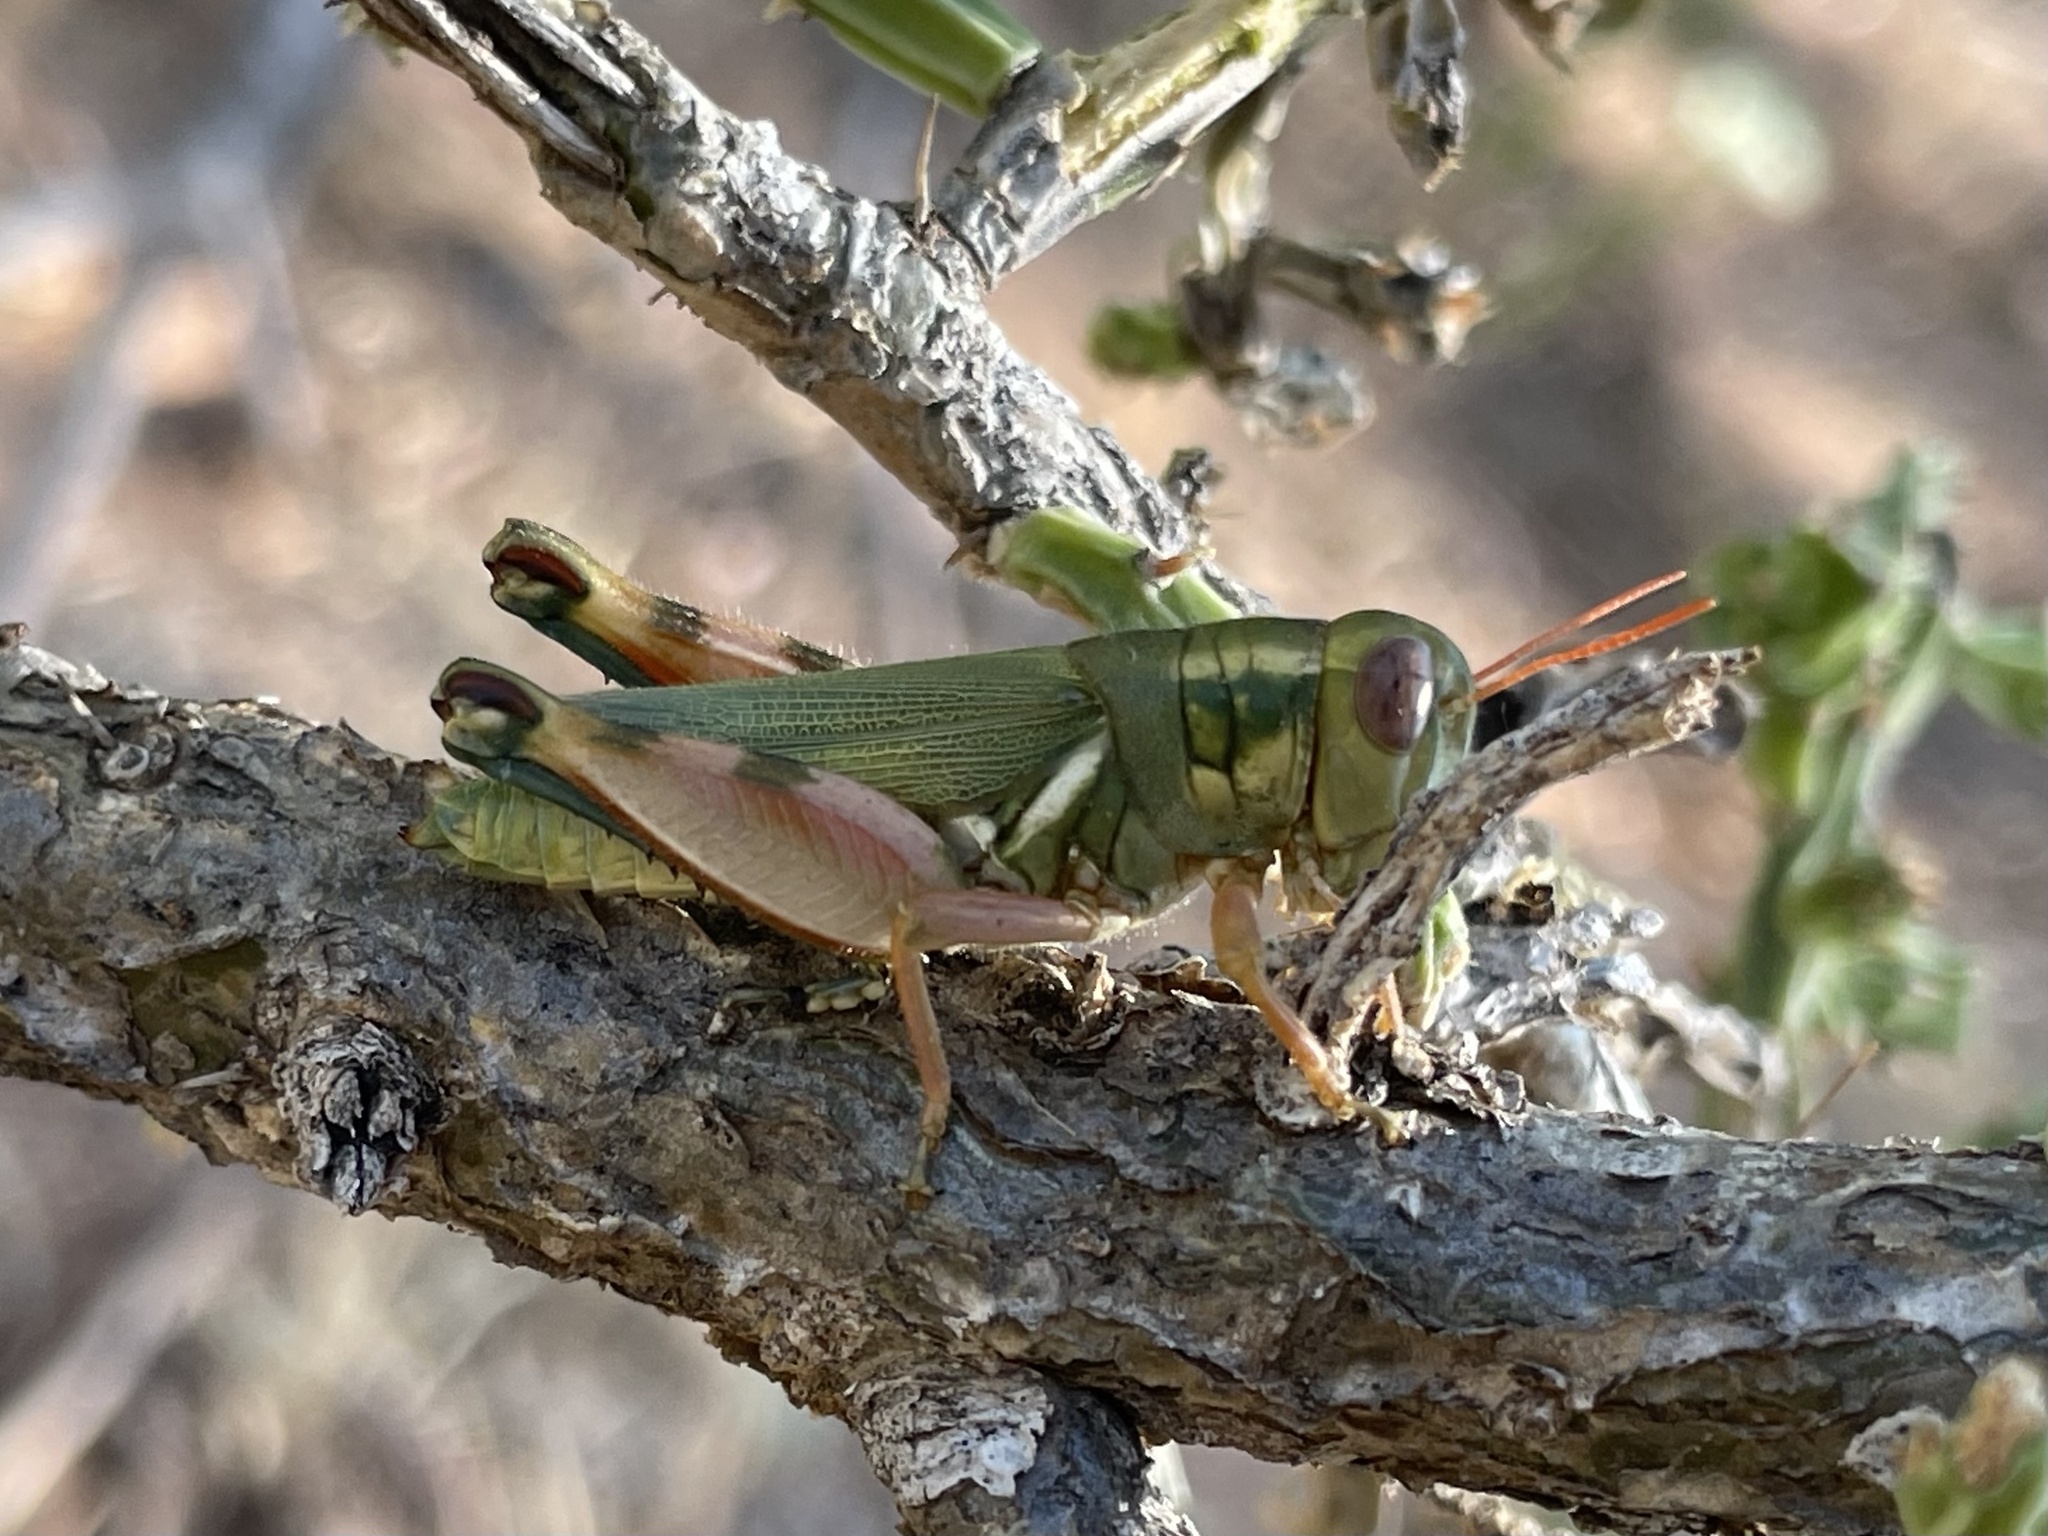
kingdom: Animalia
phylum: Arthropoda
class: Insecta
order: Orthoptera
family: Acrididae
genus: Chloroplus
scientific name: Chloroplus cactocaetes
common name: Texas cholla grasshopper
